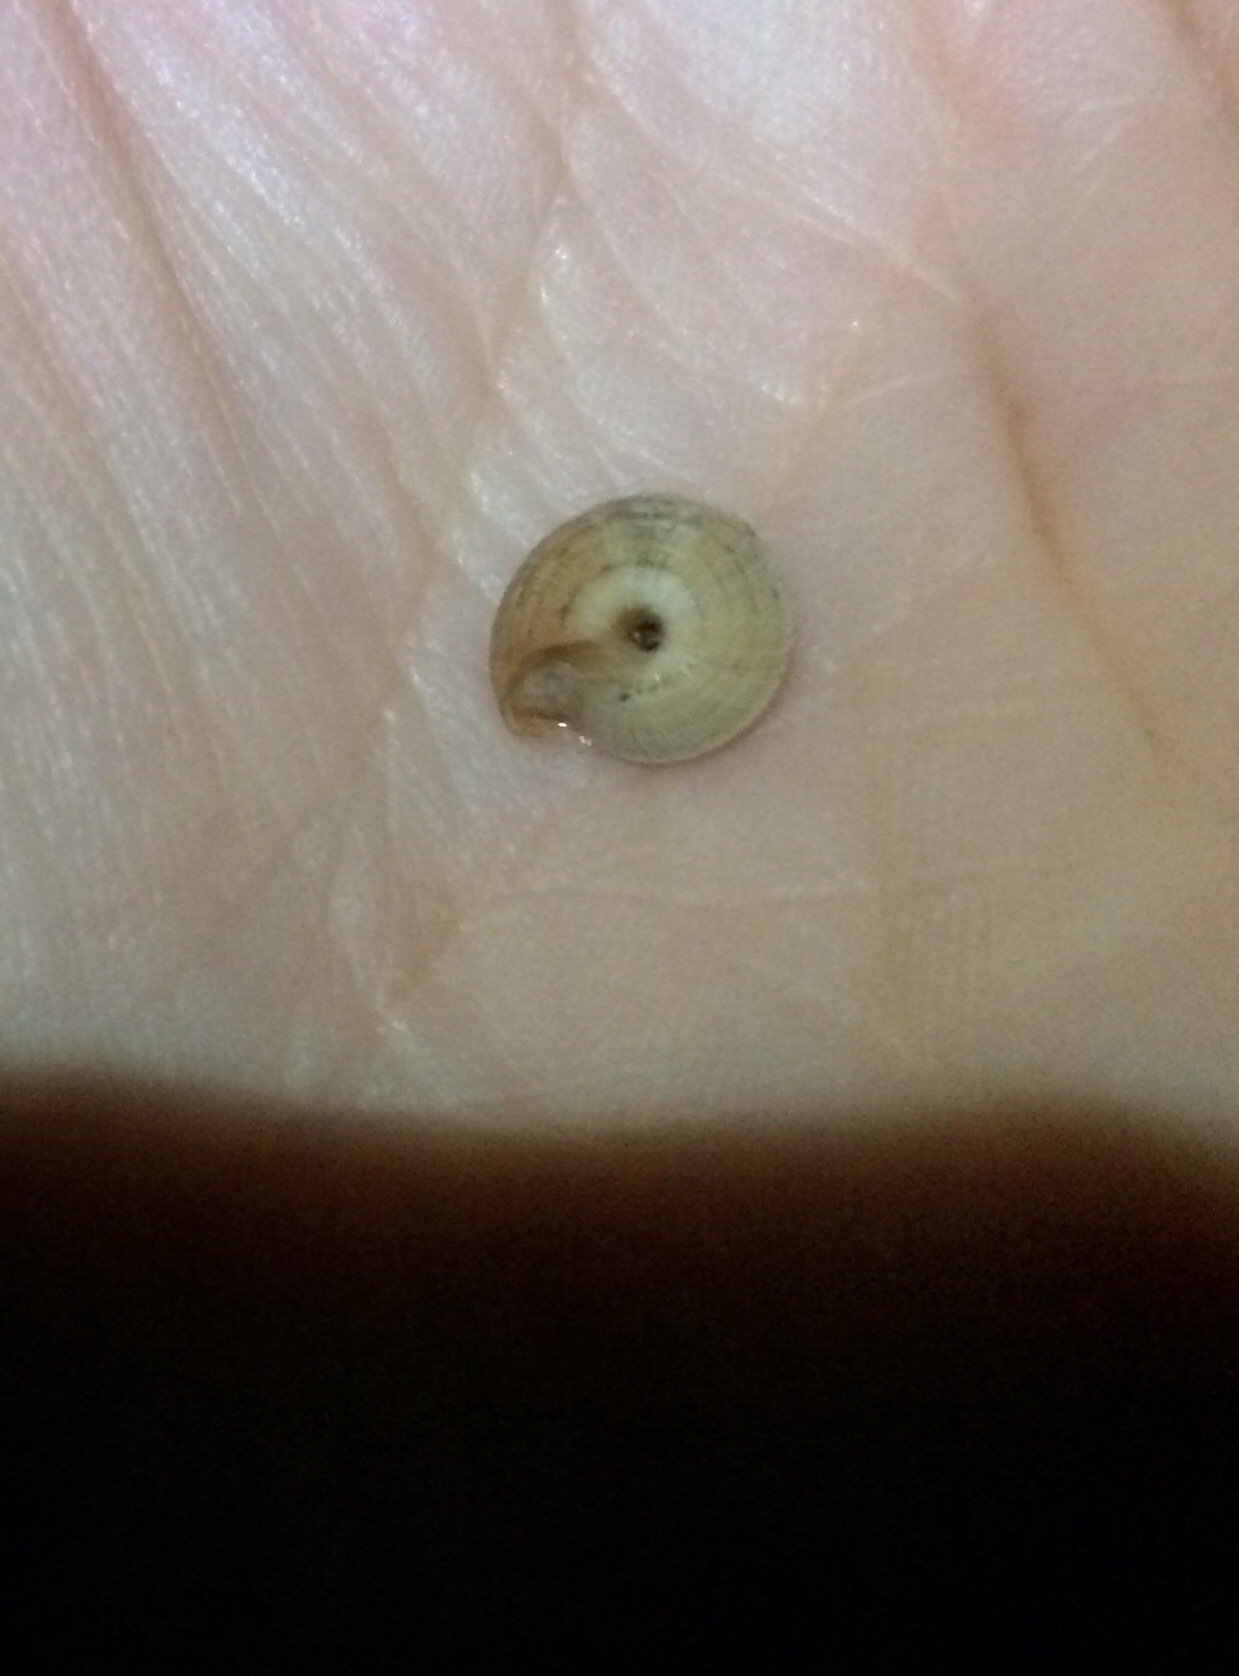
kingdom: Animalia
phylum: Mollusca
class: Gastropoda
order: Stylommatophora
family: Geomitridae
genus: Xeroplexa
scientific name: Xeroplexa intersecta
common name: Wrinkled snail
